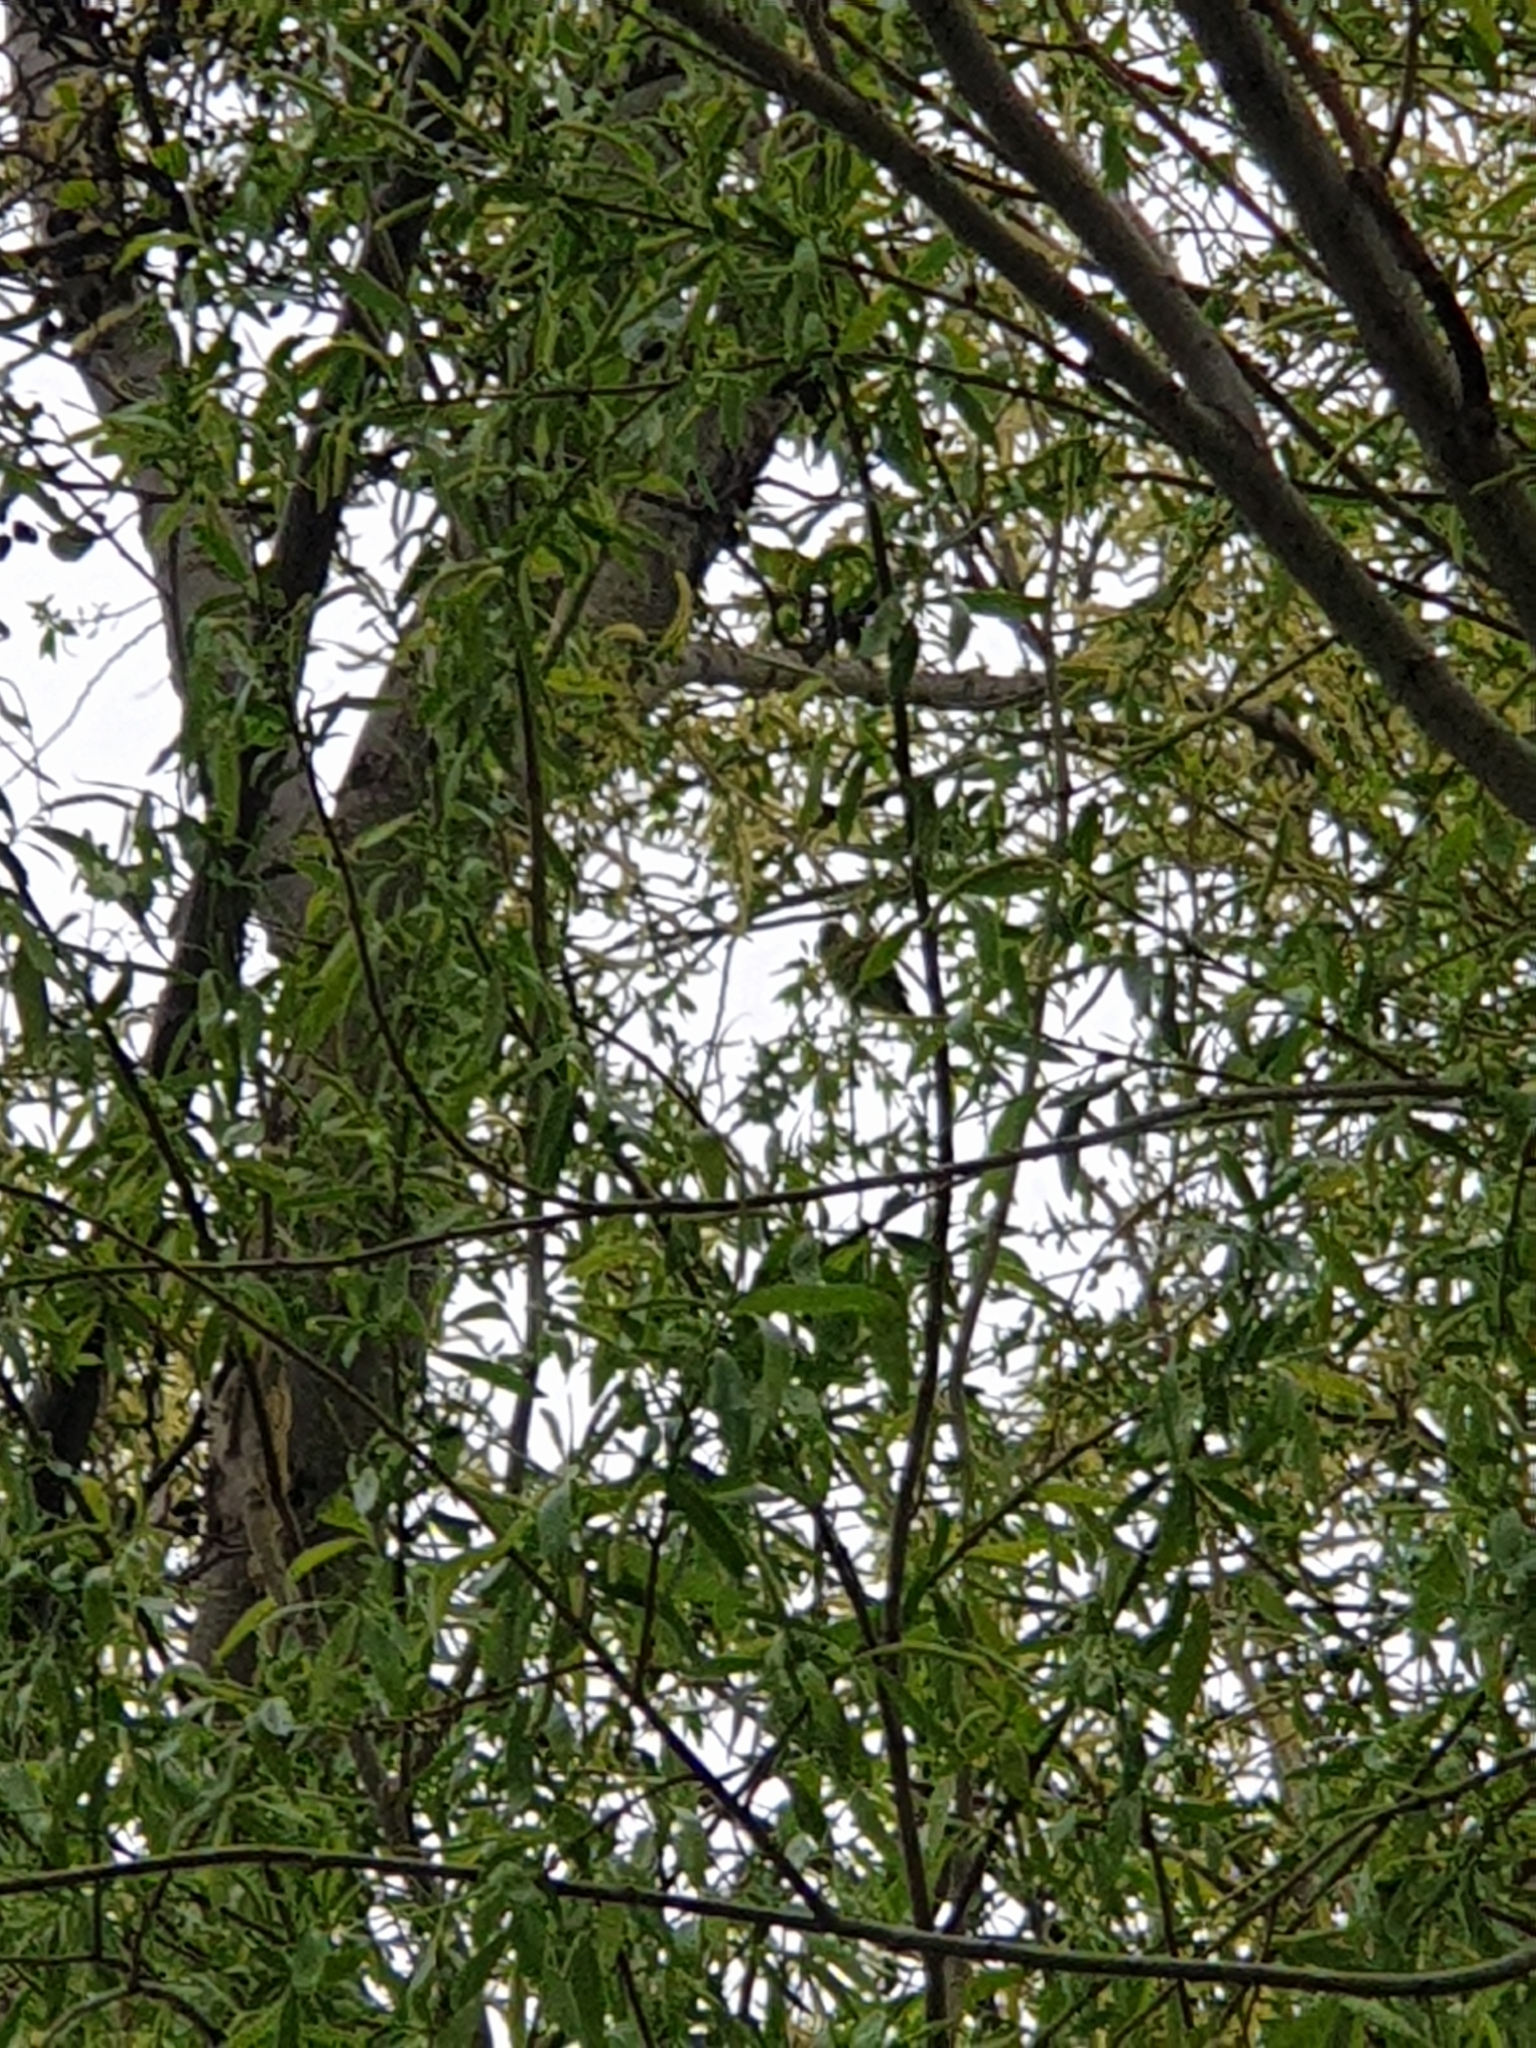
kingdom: Animalia
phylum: Chordata
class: Aves
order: Psittaciformes
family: Psittacidae
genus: Psittacula
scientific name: Psittacula krameri
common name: Rose-ringed parakeet
